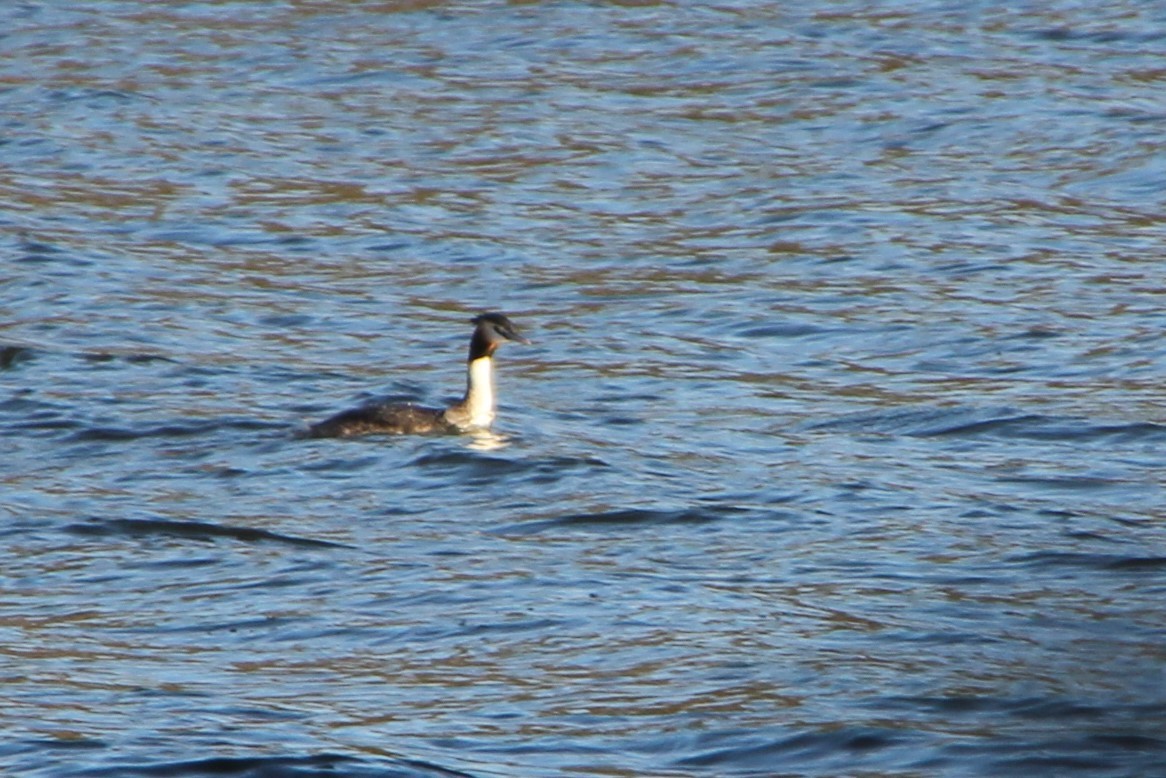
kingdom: Animalia
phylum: Chordata
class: Aves
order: Podicipediformes
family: Podicipedidae
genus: Podiceps
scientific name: Podiceps cristatus
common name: Great crested grebe
